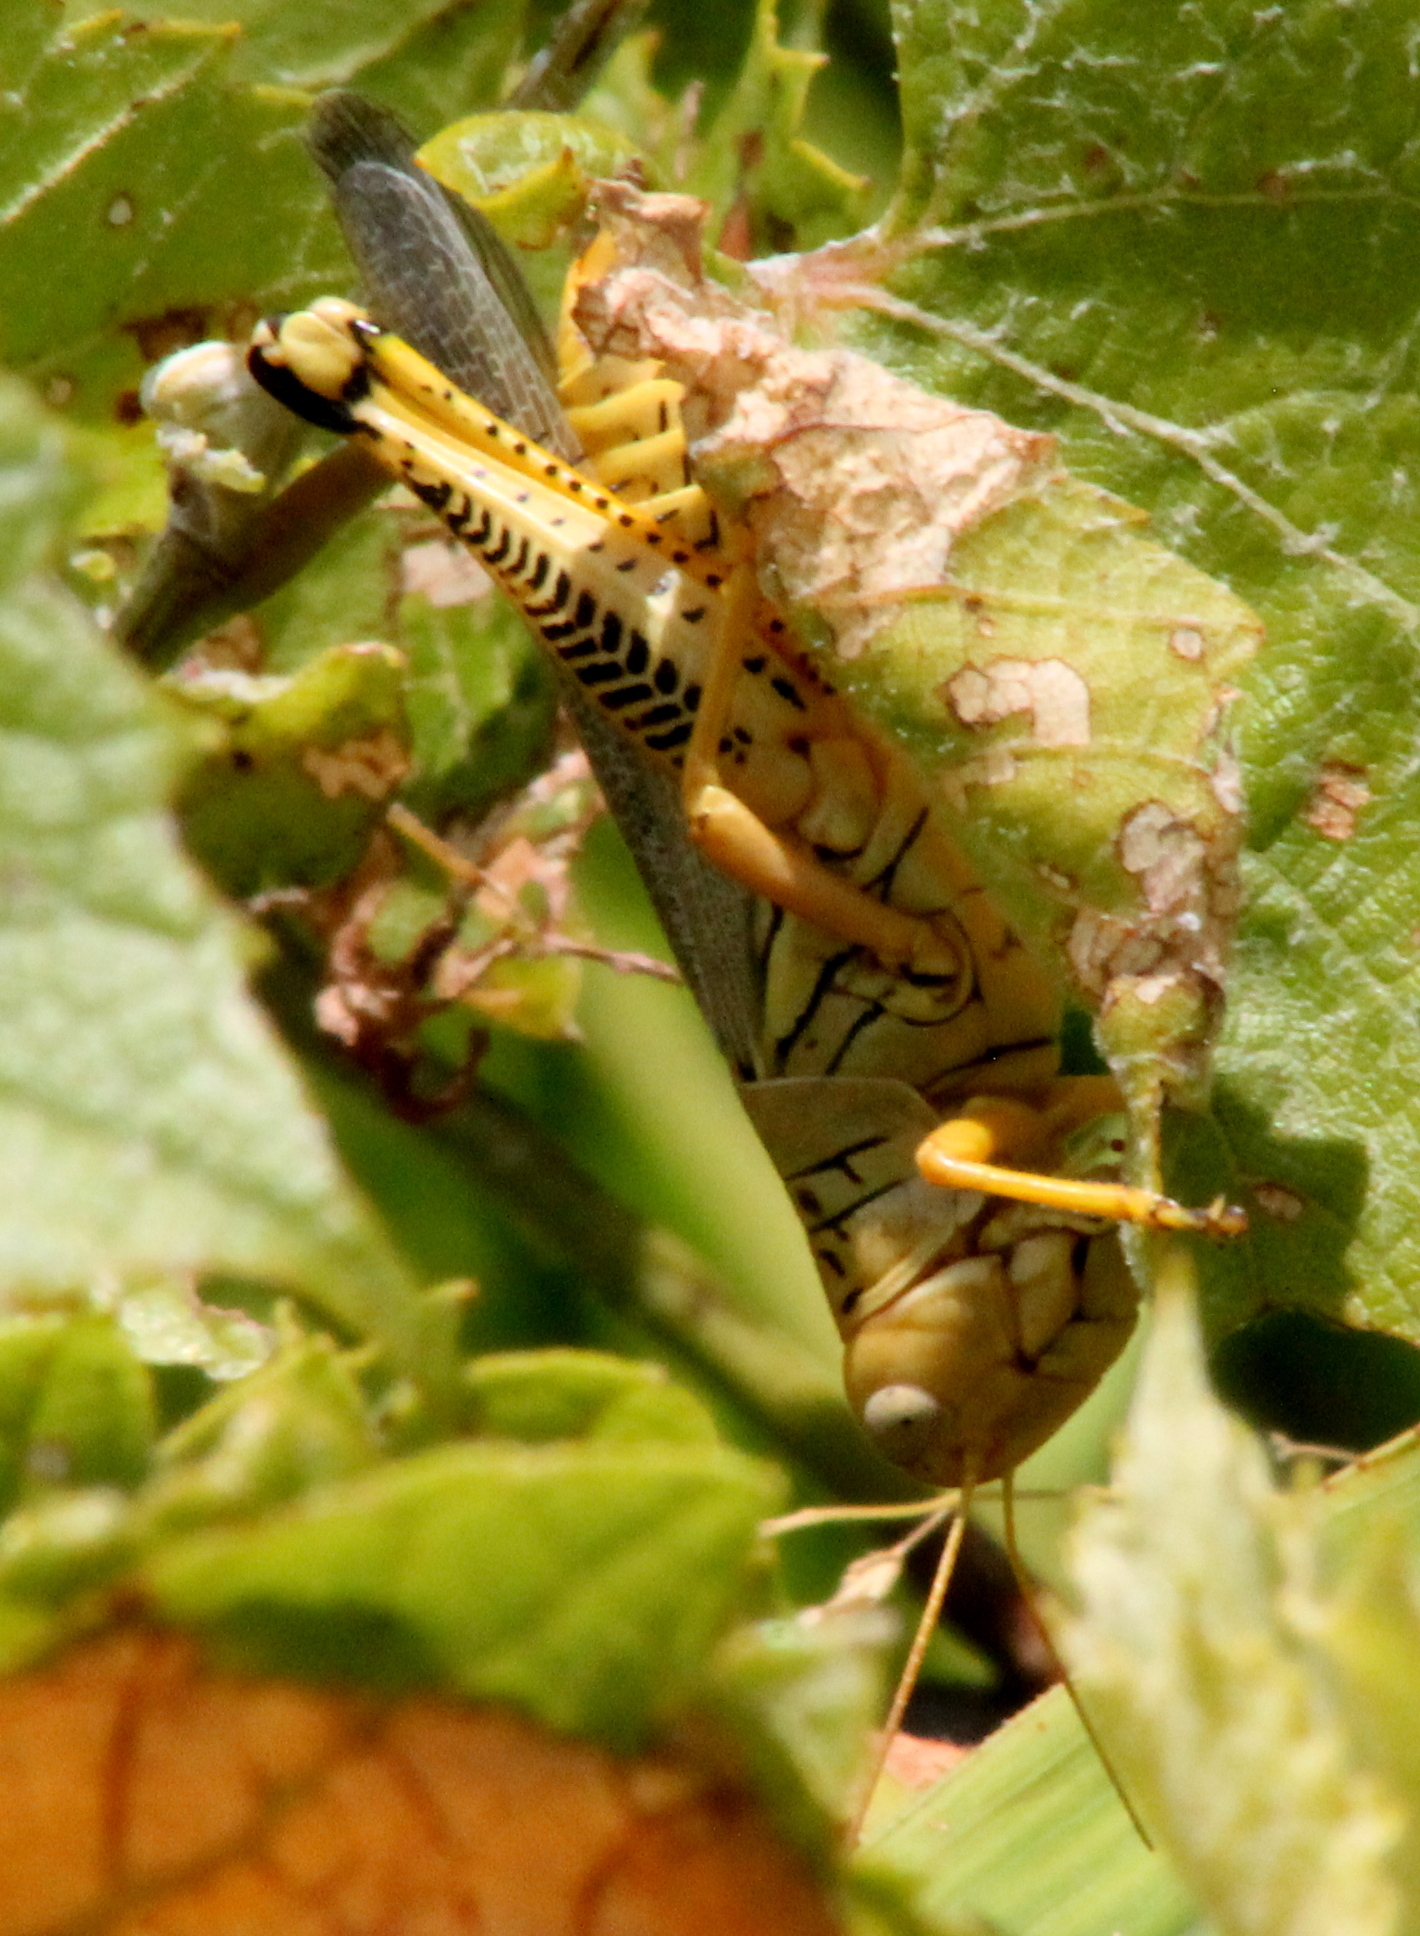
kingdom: Animalia
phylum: Arthropoda
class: Insecta
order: Orthoptera
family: Acrididae
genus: Melanoplus
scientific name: Melanoplus differentialis
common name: Differential grasshopper
